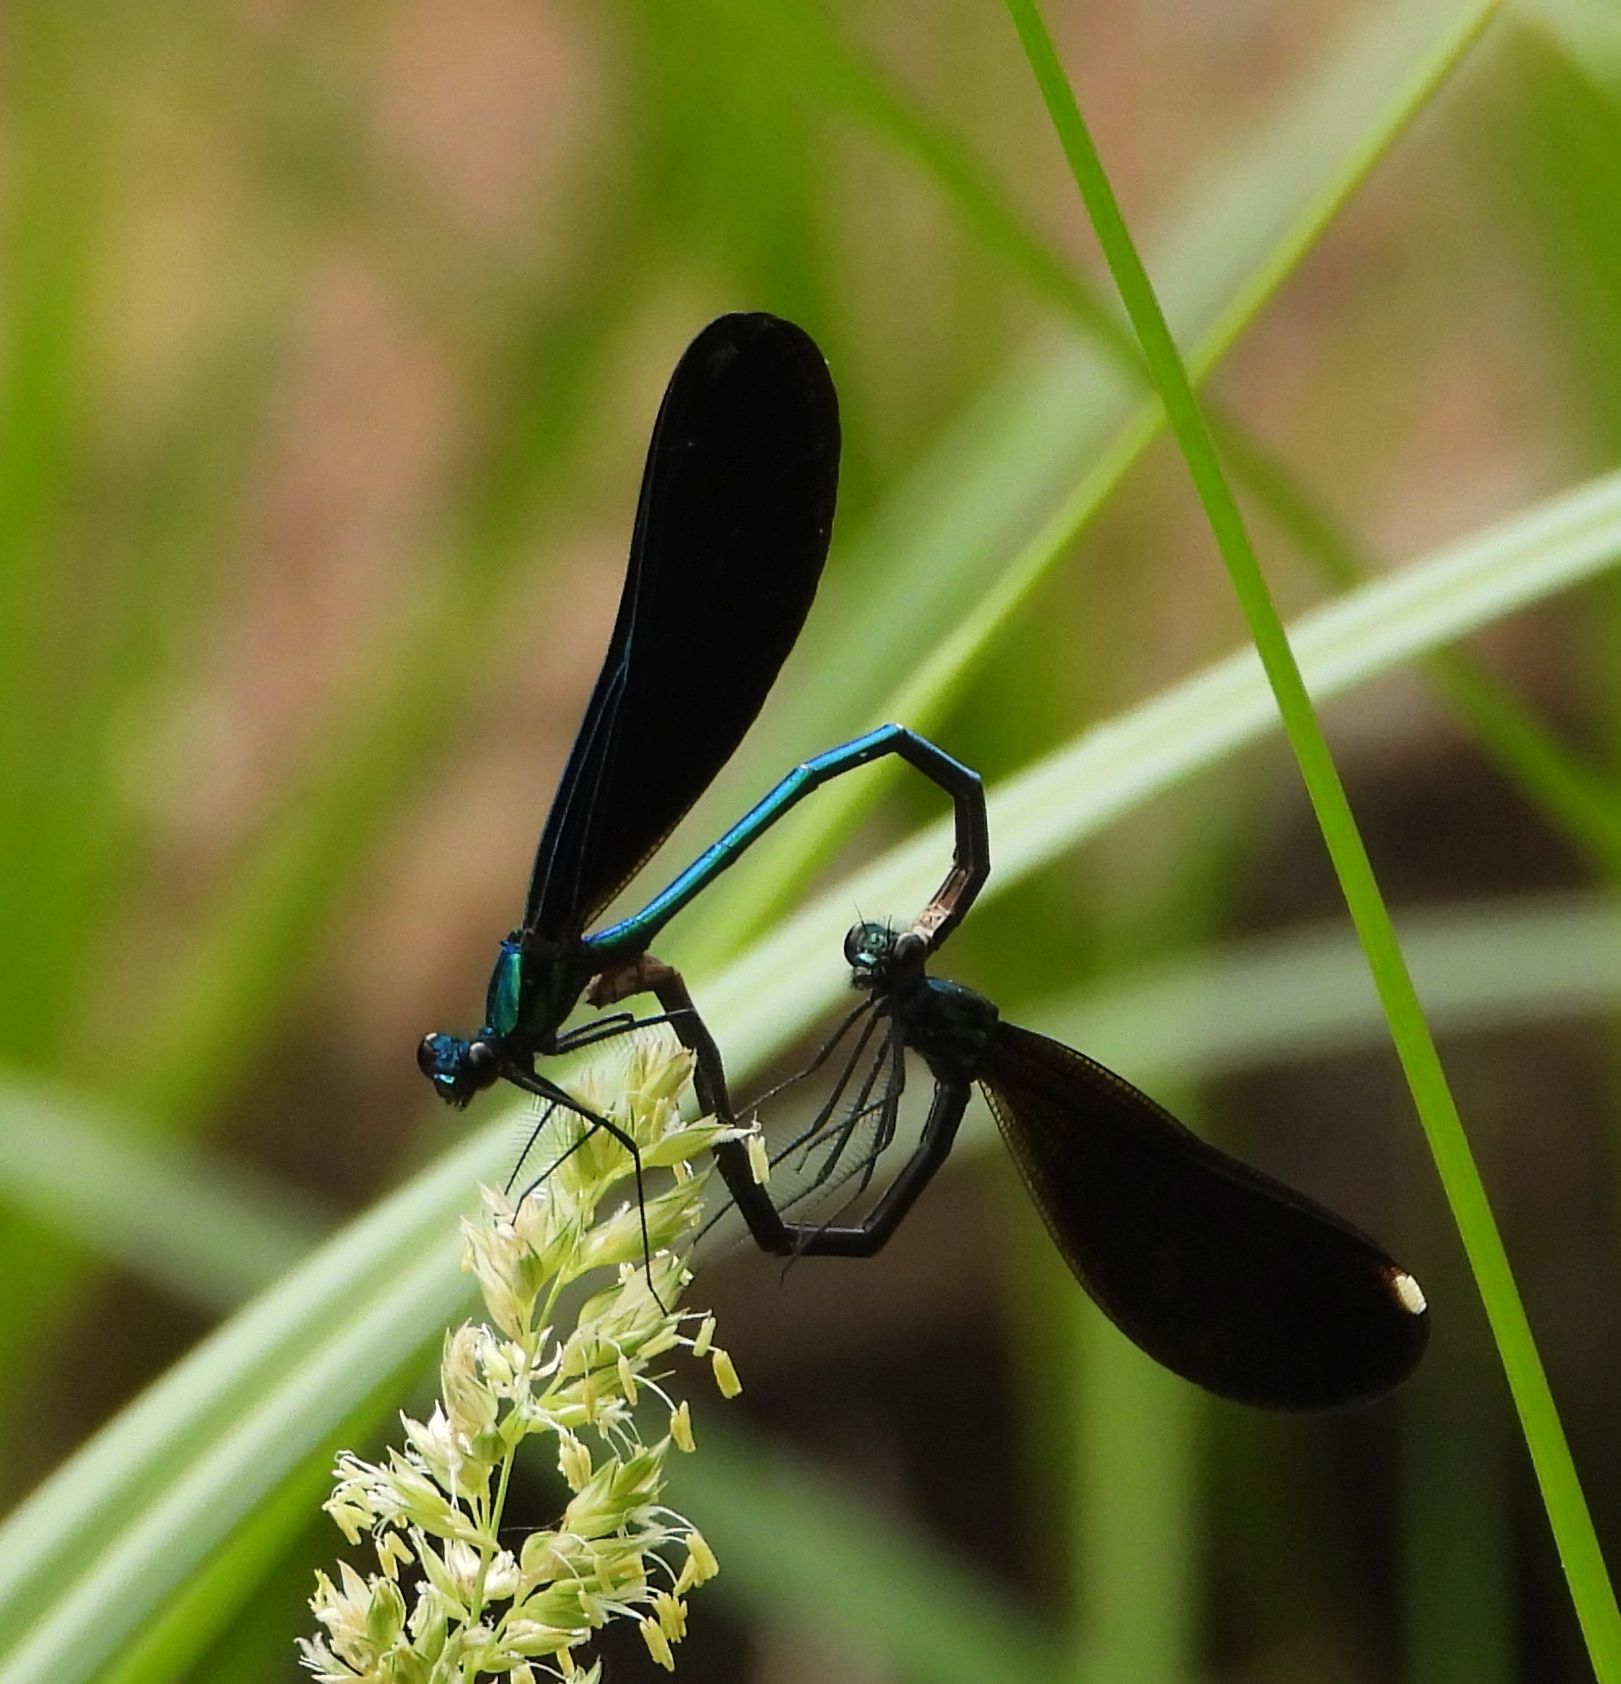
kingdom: Animalia
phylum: Arthropoda
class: Insecta
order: Odonata
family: Calopterygidae
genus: Calopteryx
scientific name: Calopteryx maculata
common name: Ebony jewelwing
